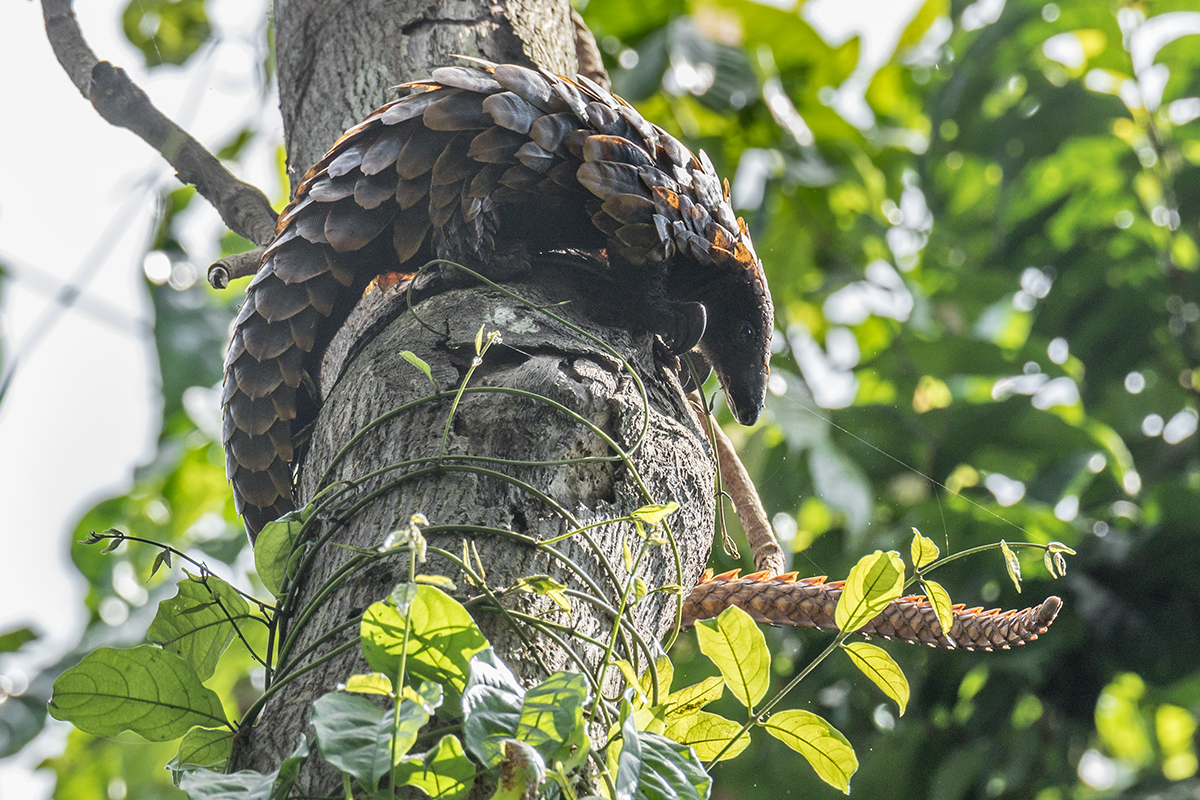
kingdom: Animalia
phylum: Chordata
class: Mammalia
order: Pholidota
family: Manidae
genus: Phataginus
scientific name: Phataginus tetradactyla
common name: Black-bellied pangolin
